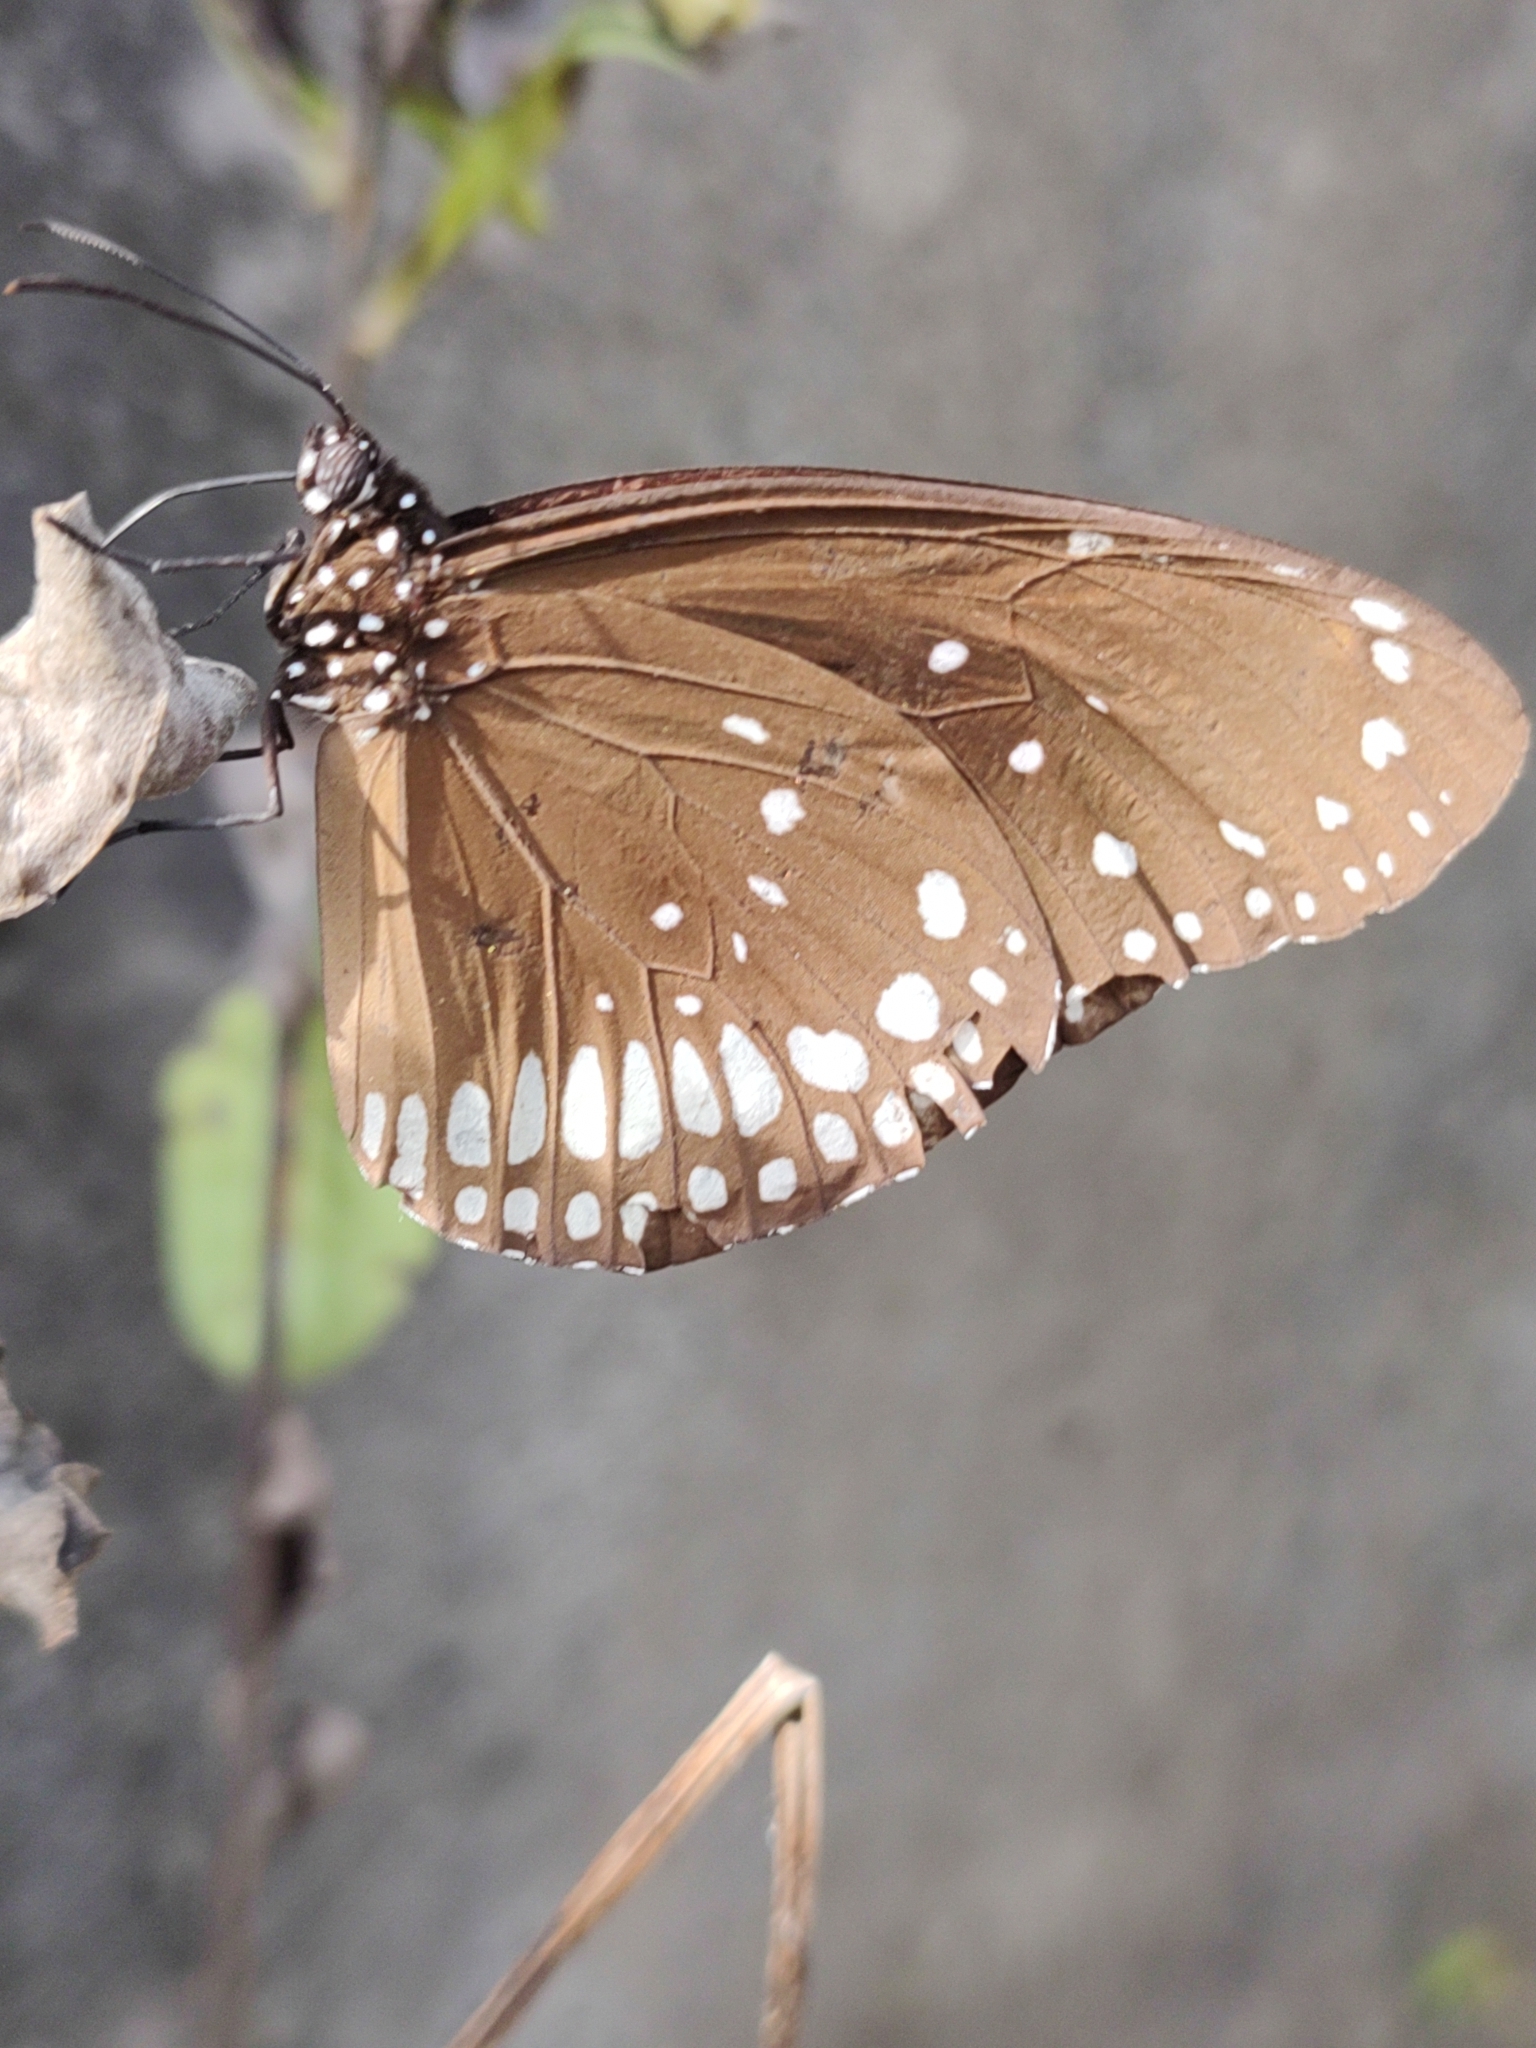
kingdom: Animalia
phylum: Arthropoda
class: Insecta
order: Lepidoptera
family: Nymphalidae
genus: Euploea
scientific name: Euploea core
